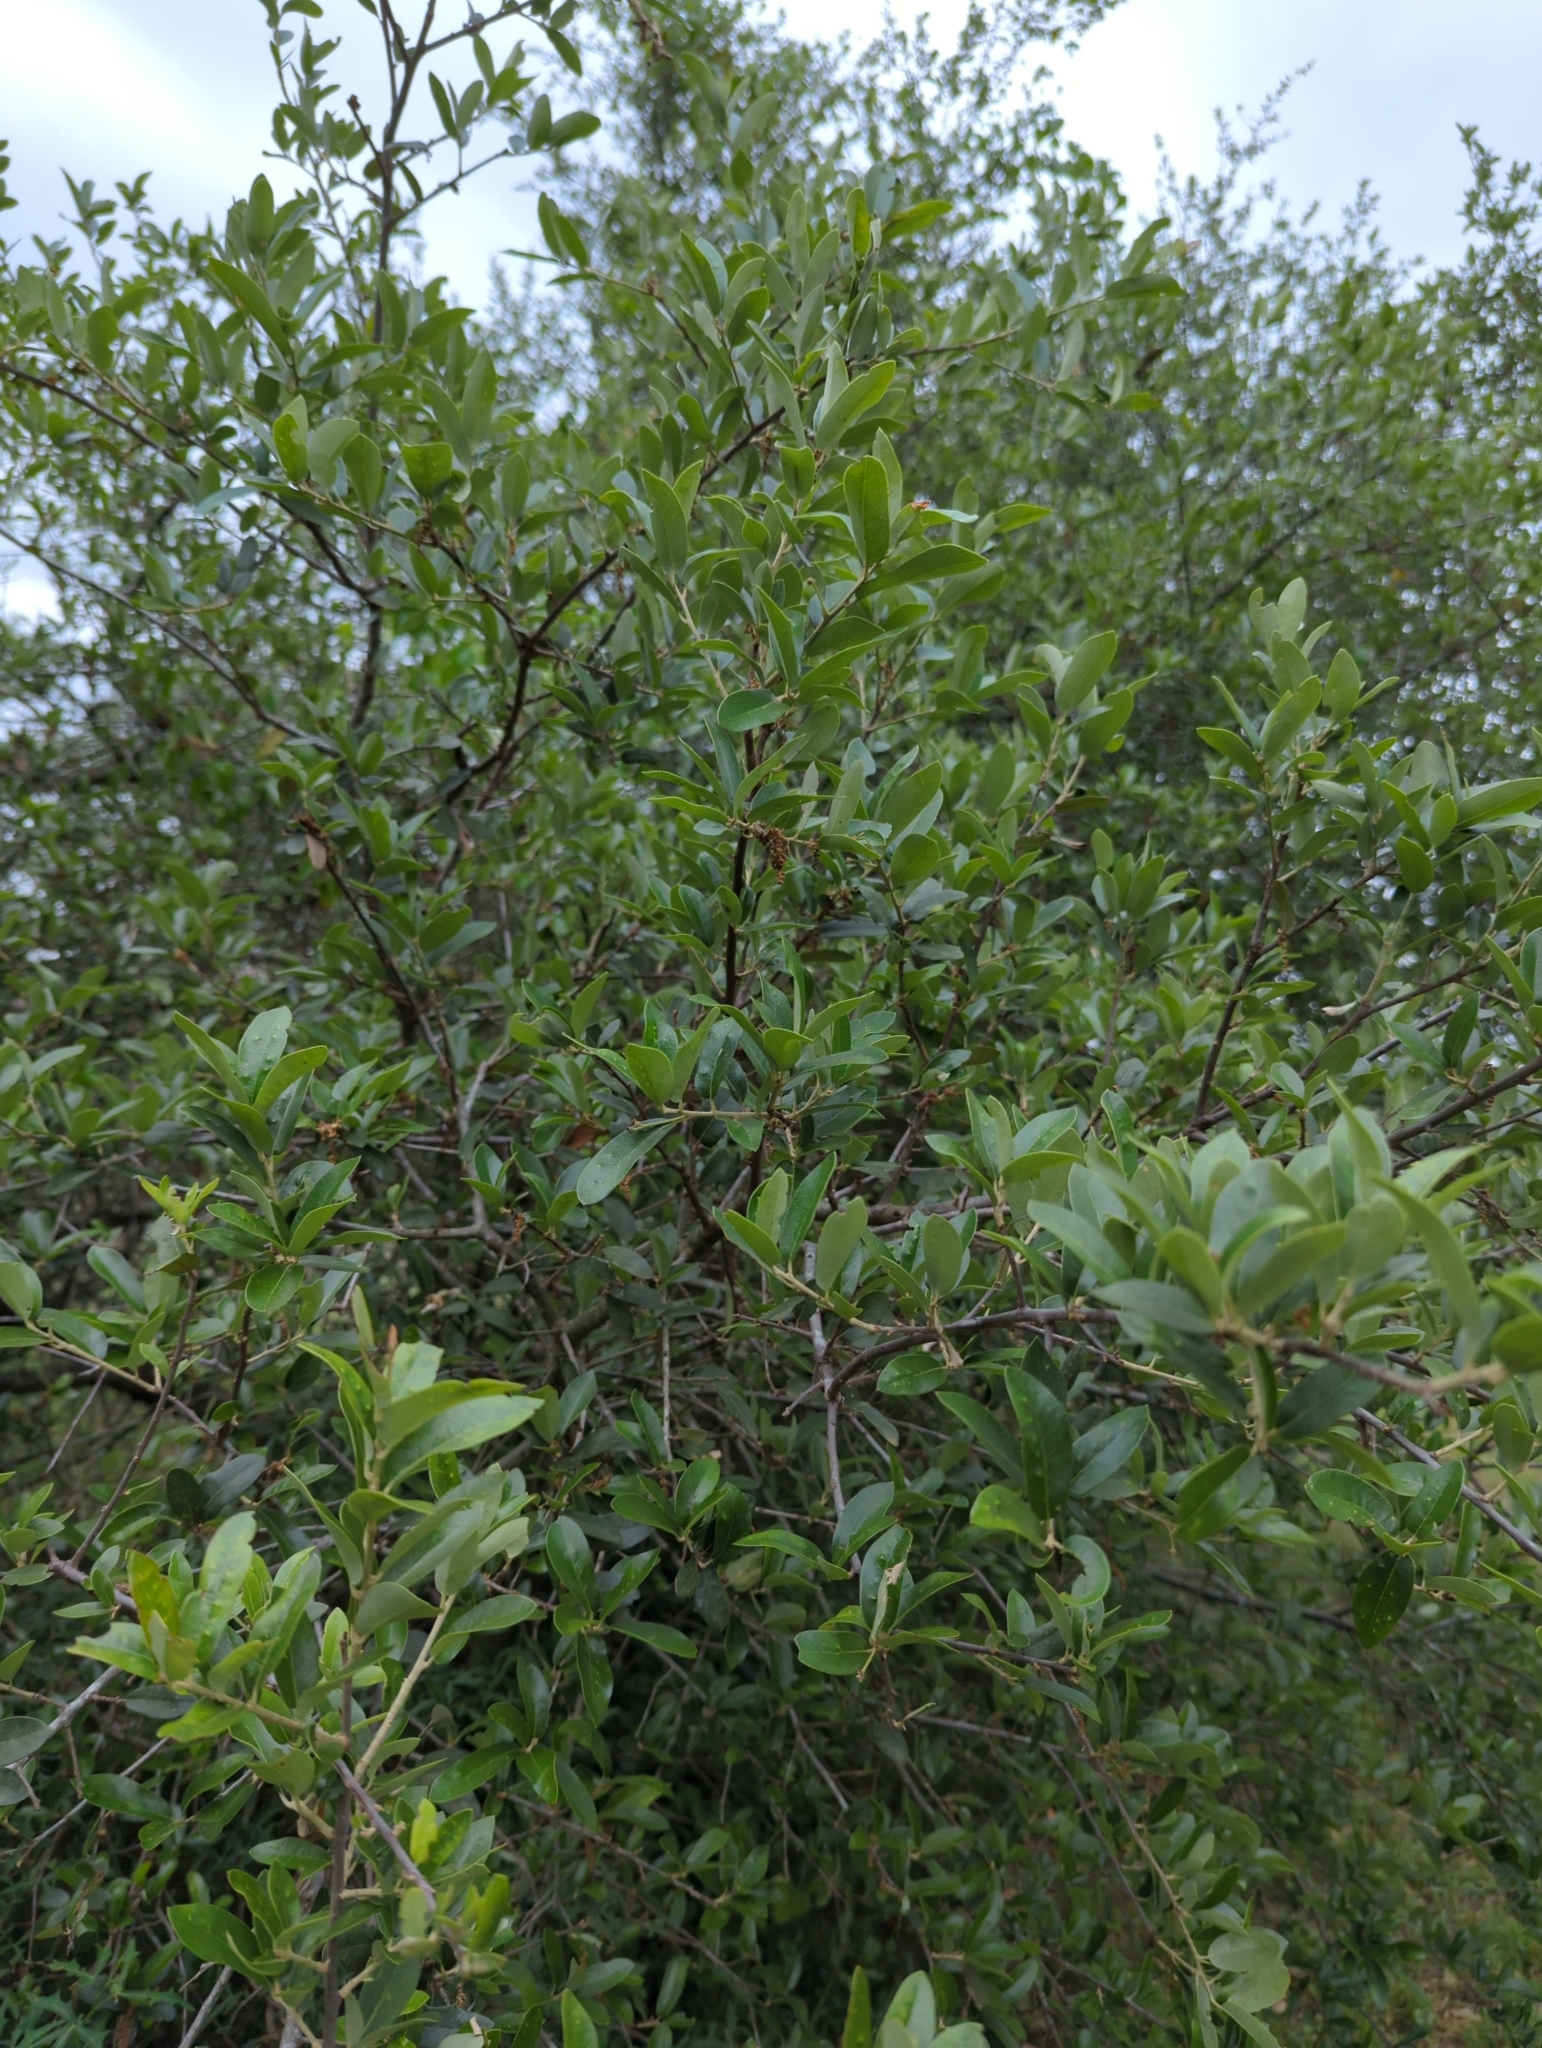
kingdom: Plantae
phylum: Tracheophyta
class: Magnoliopsida
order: Fagales
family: Fagaceae
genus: Quercus
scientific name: Quercus fusiformis
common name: Texas live oak
